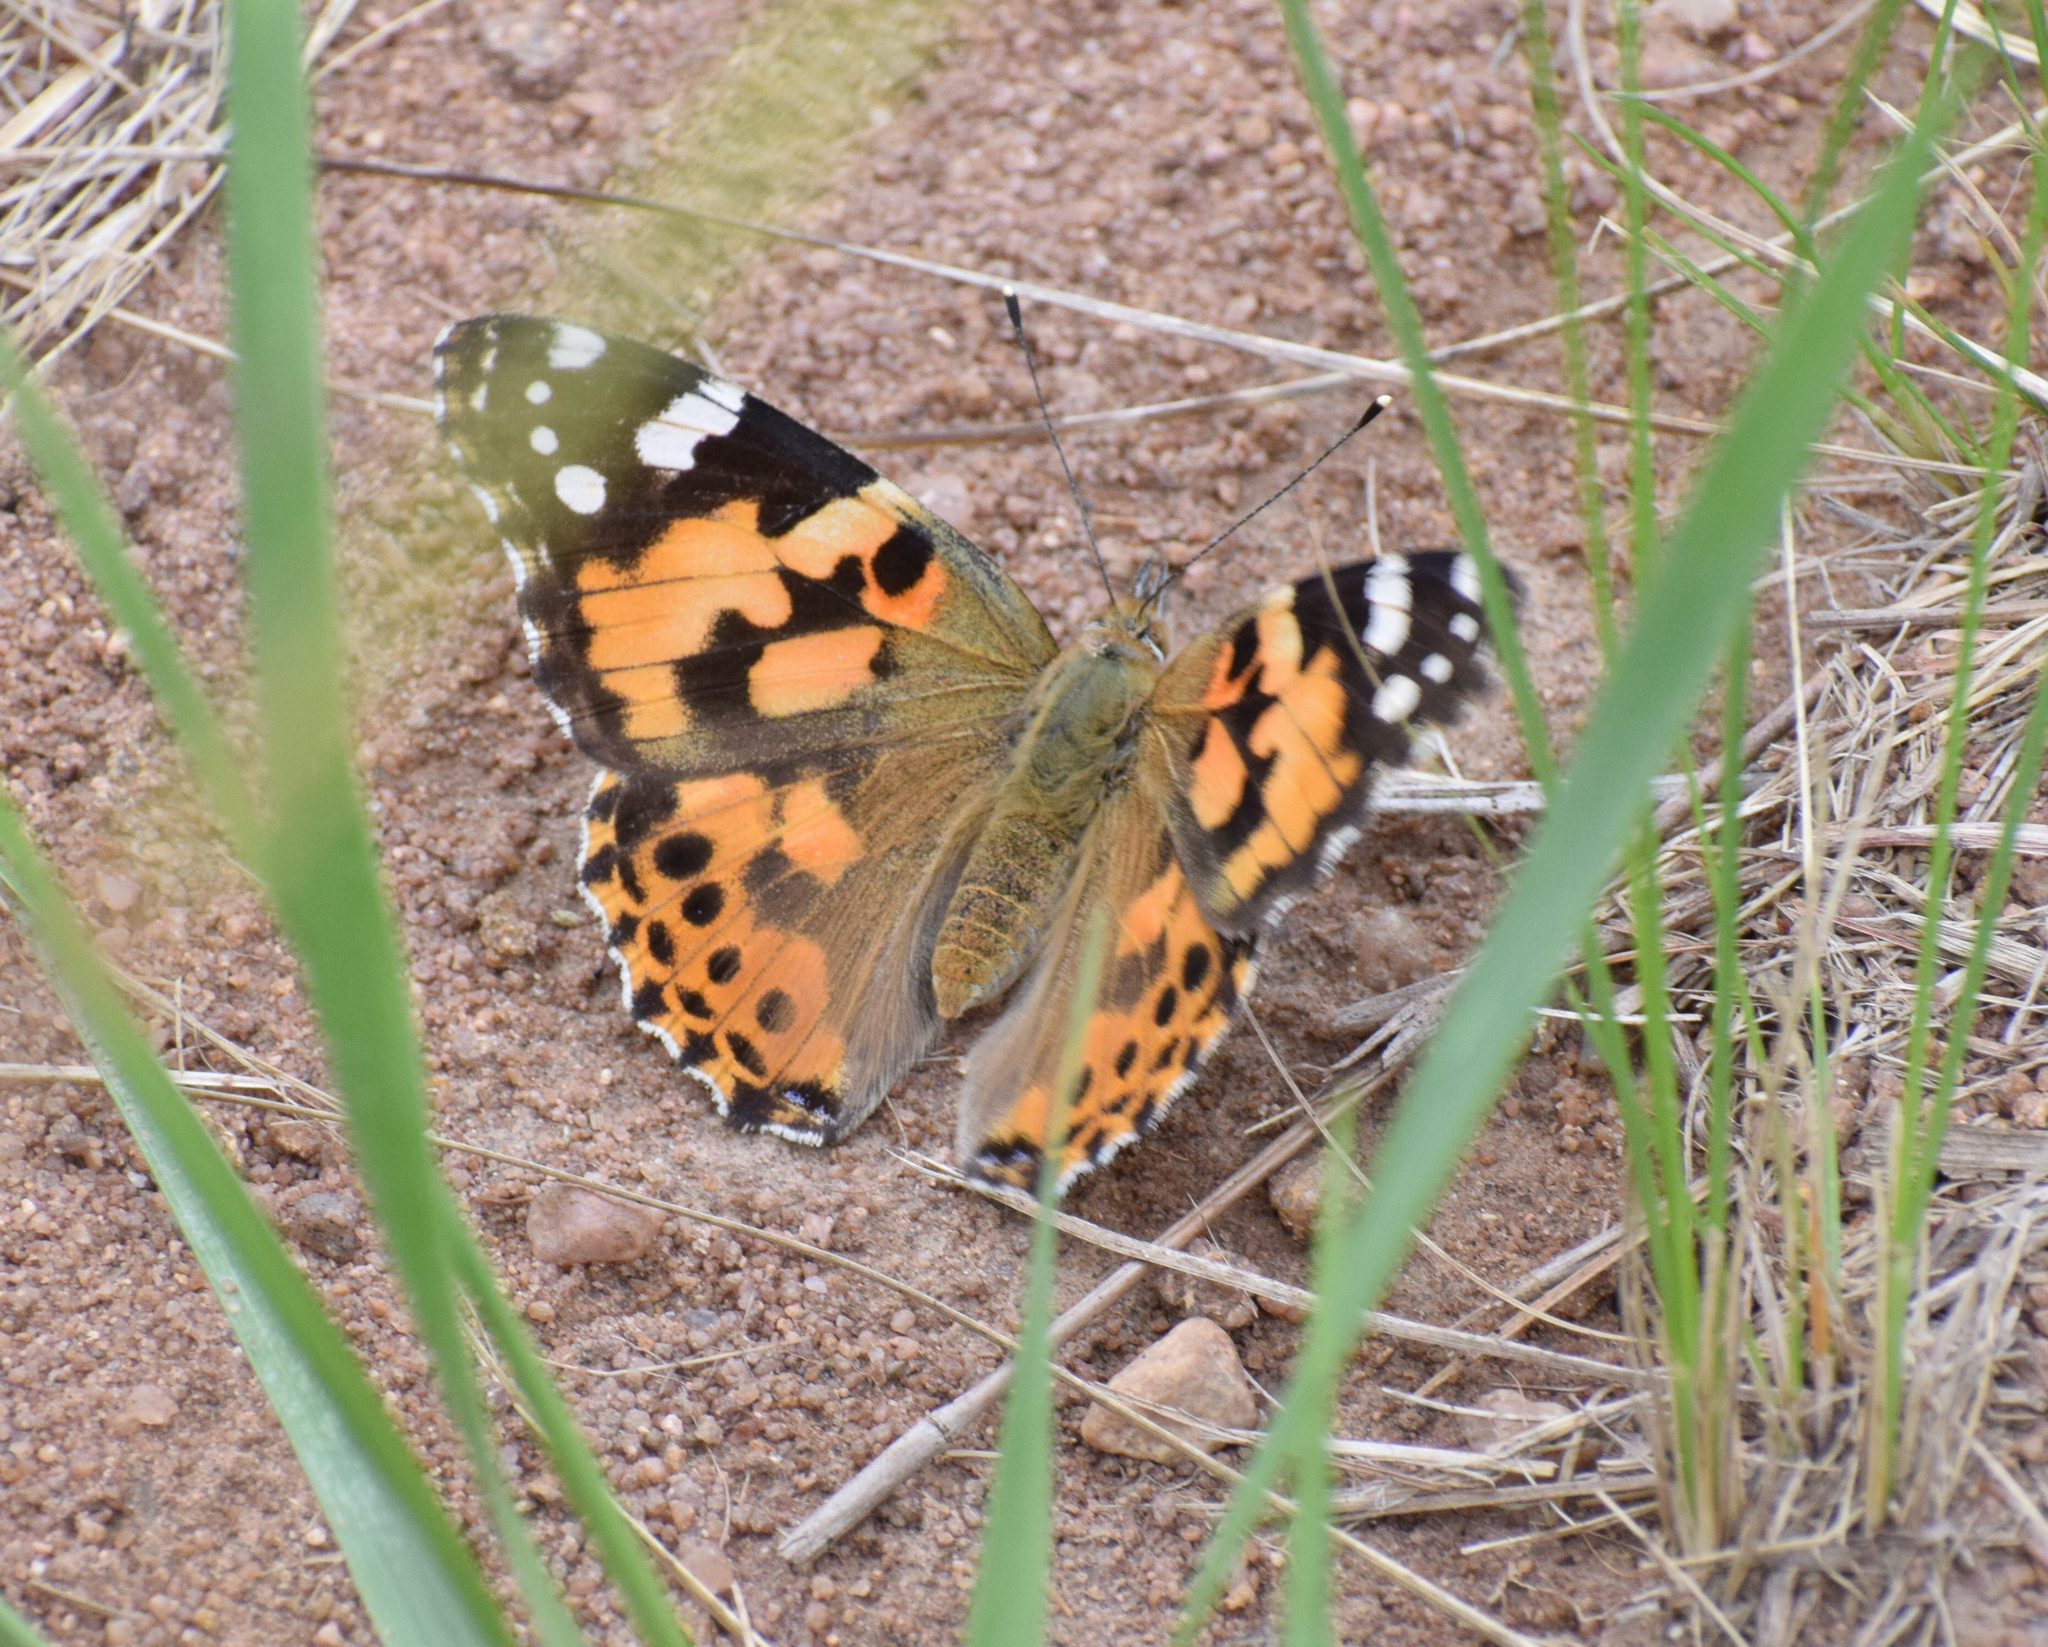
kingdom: Animalia
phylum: Arthropoda
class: Insecta
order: Lepidoptera
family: Nymphalidae
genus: Vanessa
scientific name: Vanessa cardui
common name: Painted lady
